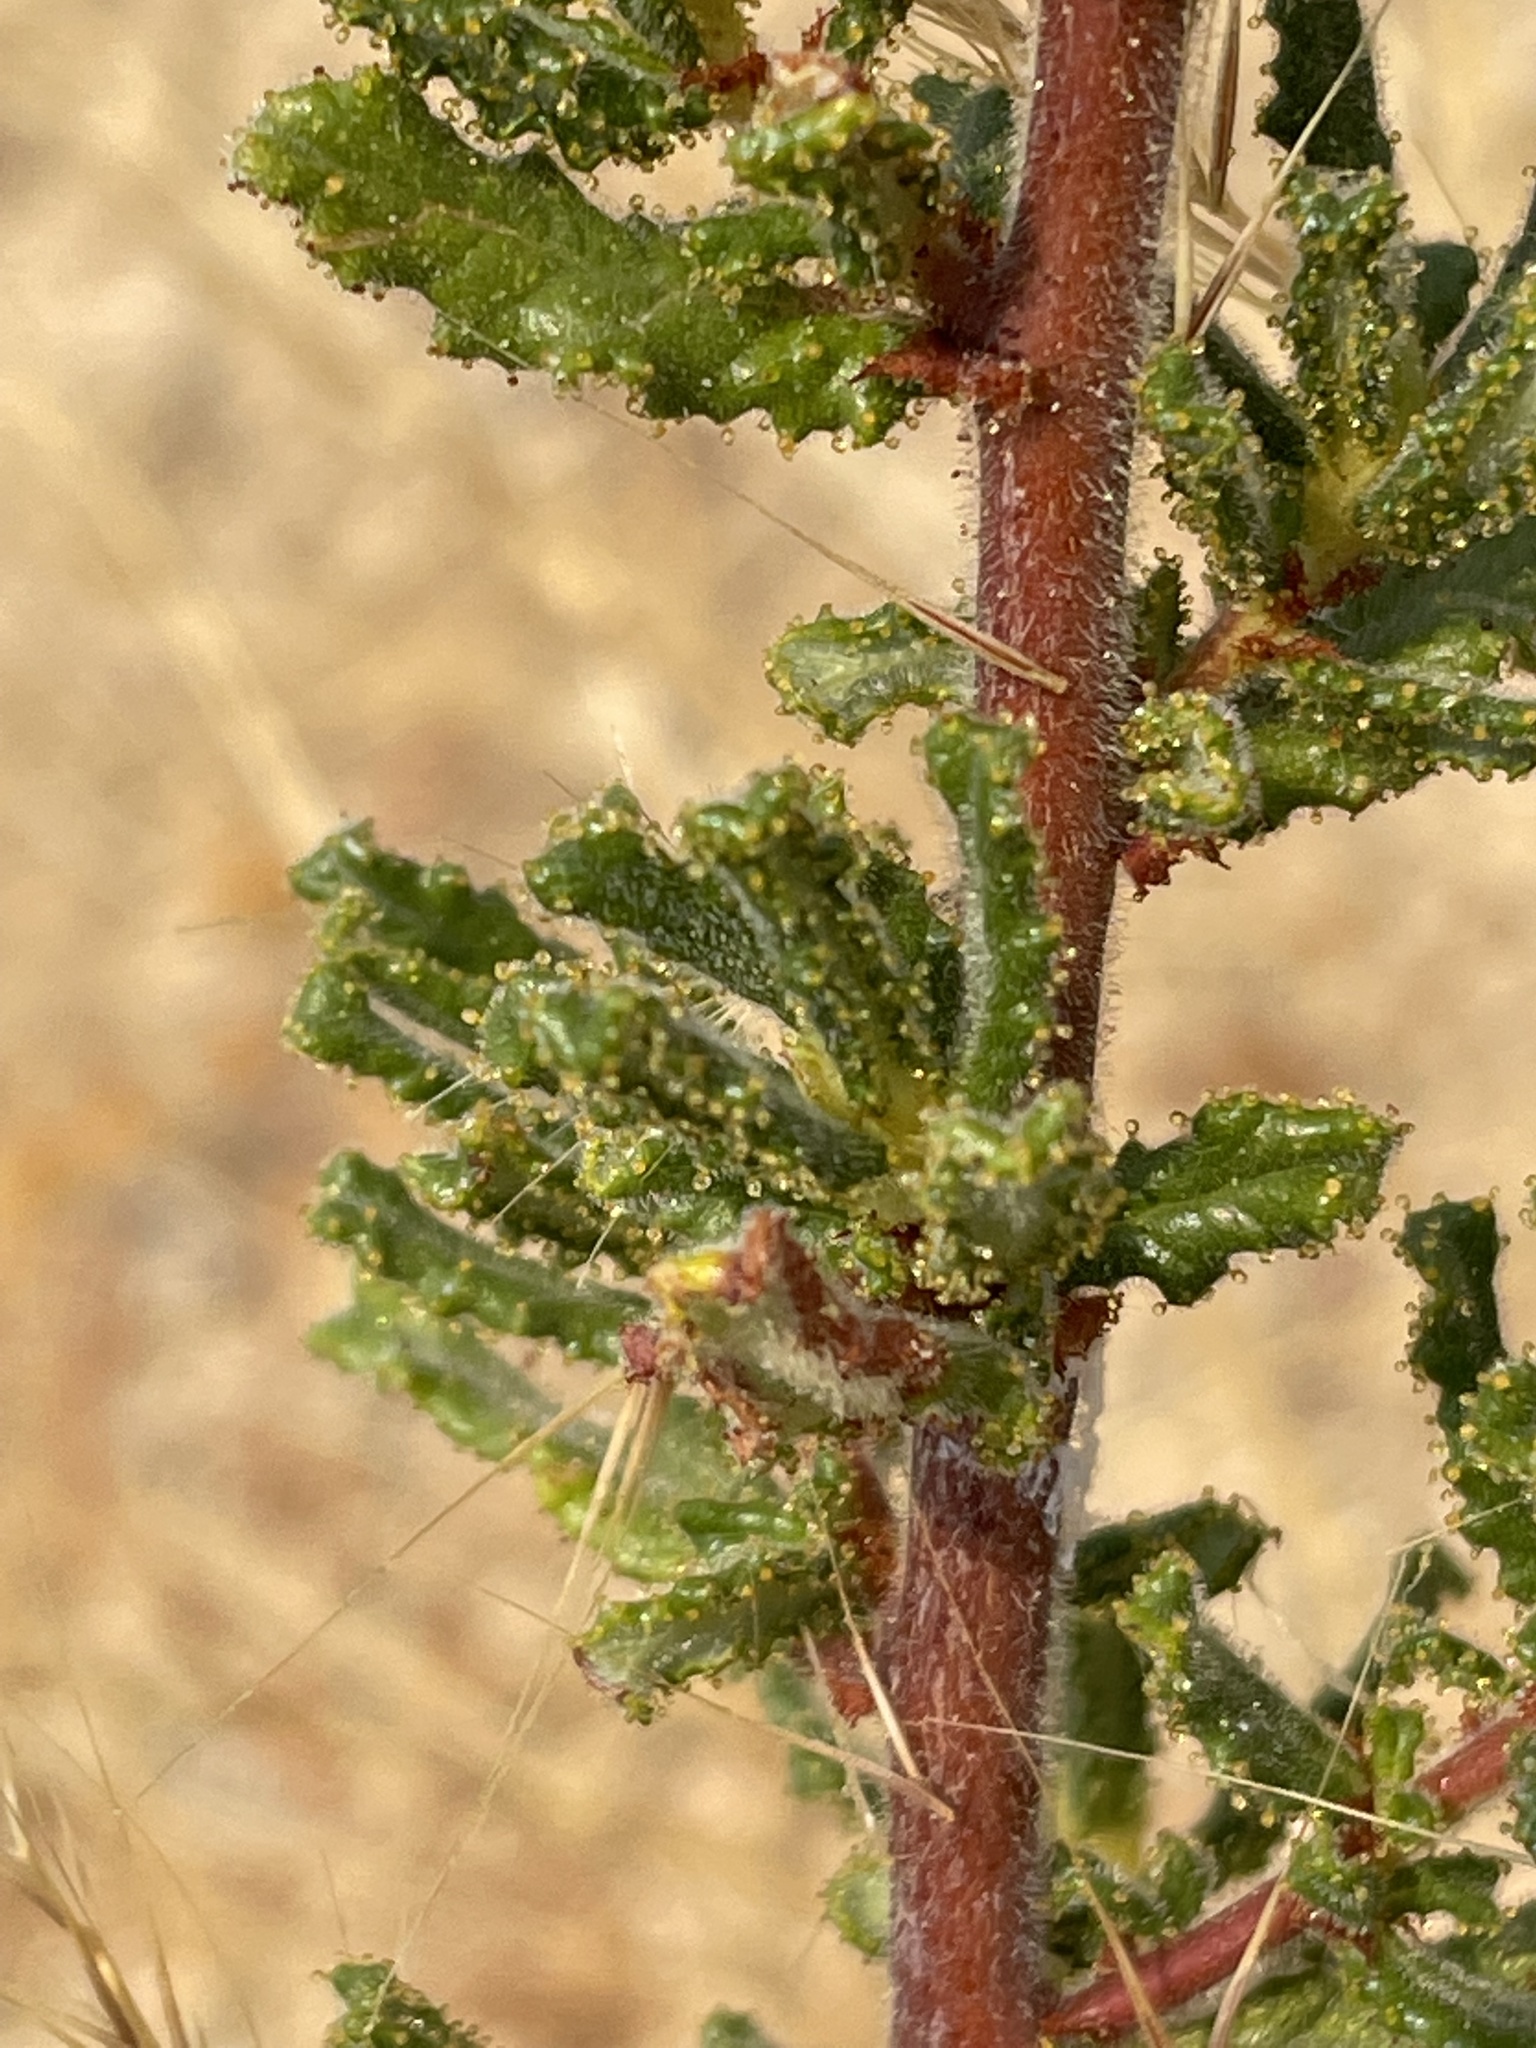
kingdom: Plantae
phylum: Tracheophyta
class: Magnoliopsida
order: Rosales
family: Rhamnaceae
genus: Ceanothus
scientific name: Ceanothus papillosus
